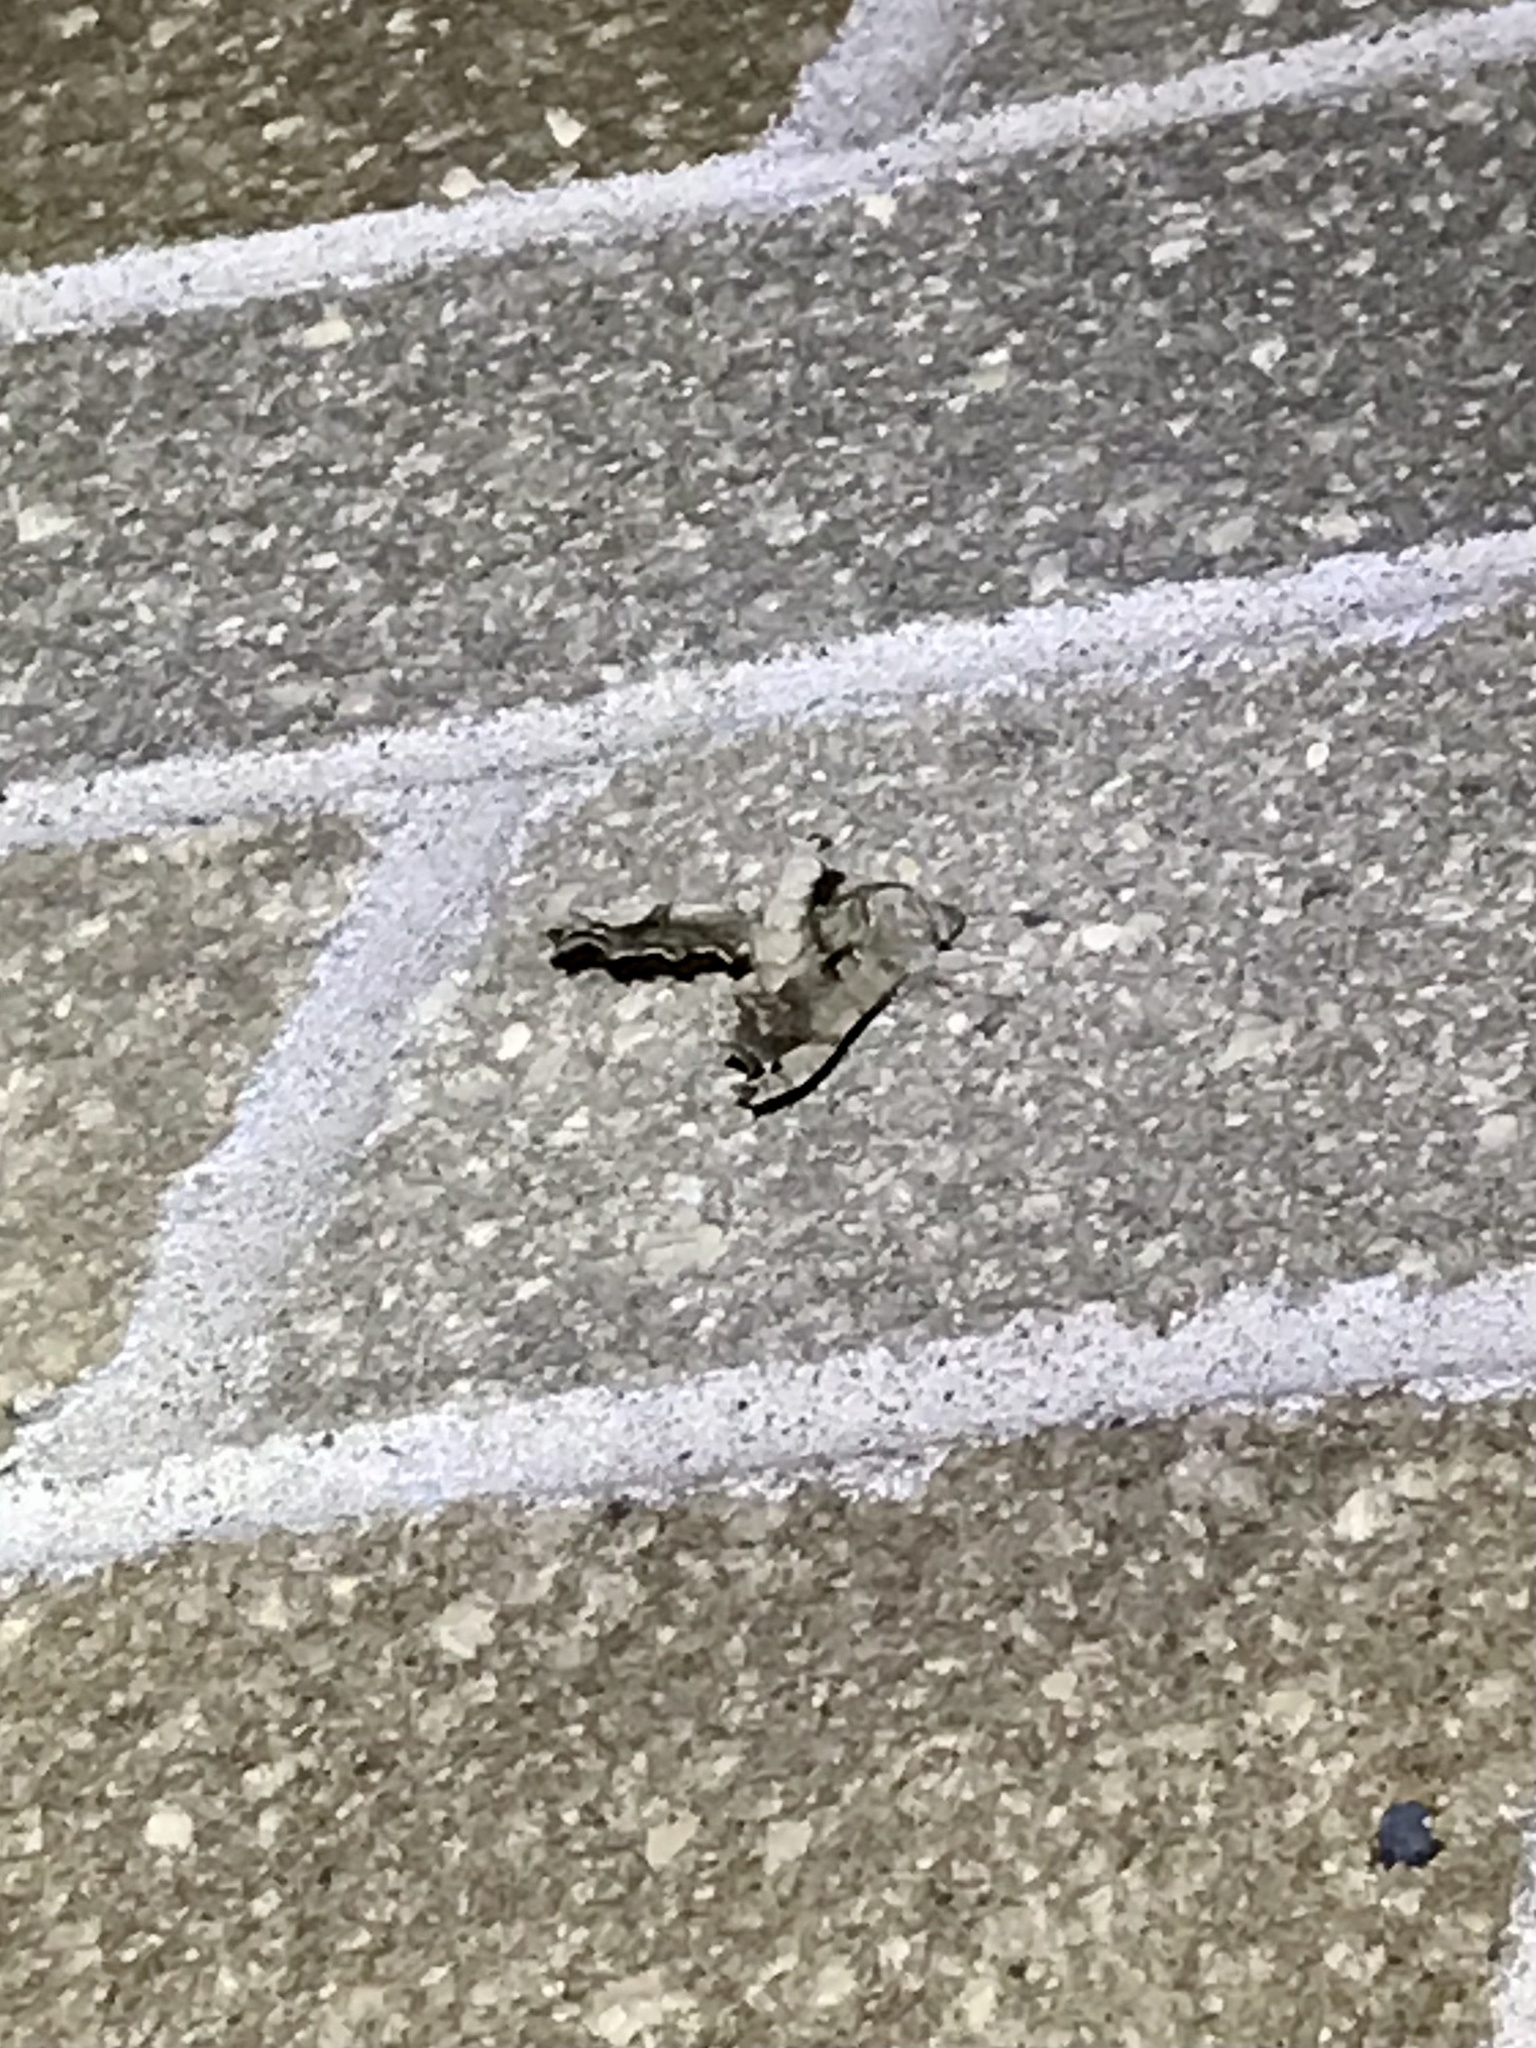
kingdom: Animalia
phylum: Arthropoda
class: Insecta
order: Lepidoptera
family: Sphingidae
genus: Deidamia
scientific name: Deidamia inscriptum
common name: Lettered sphinx
